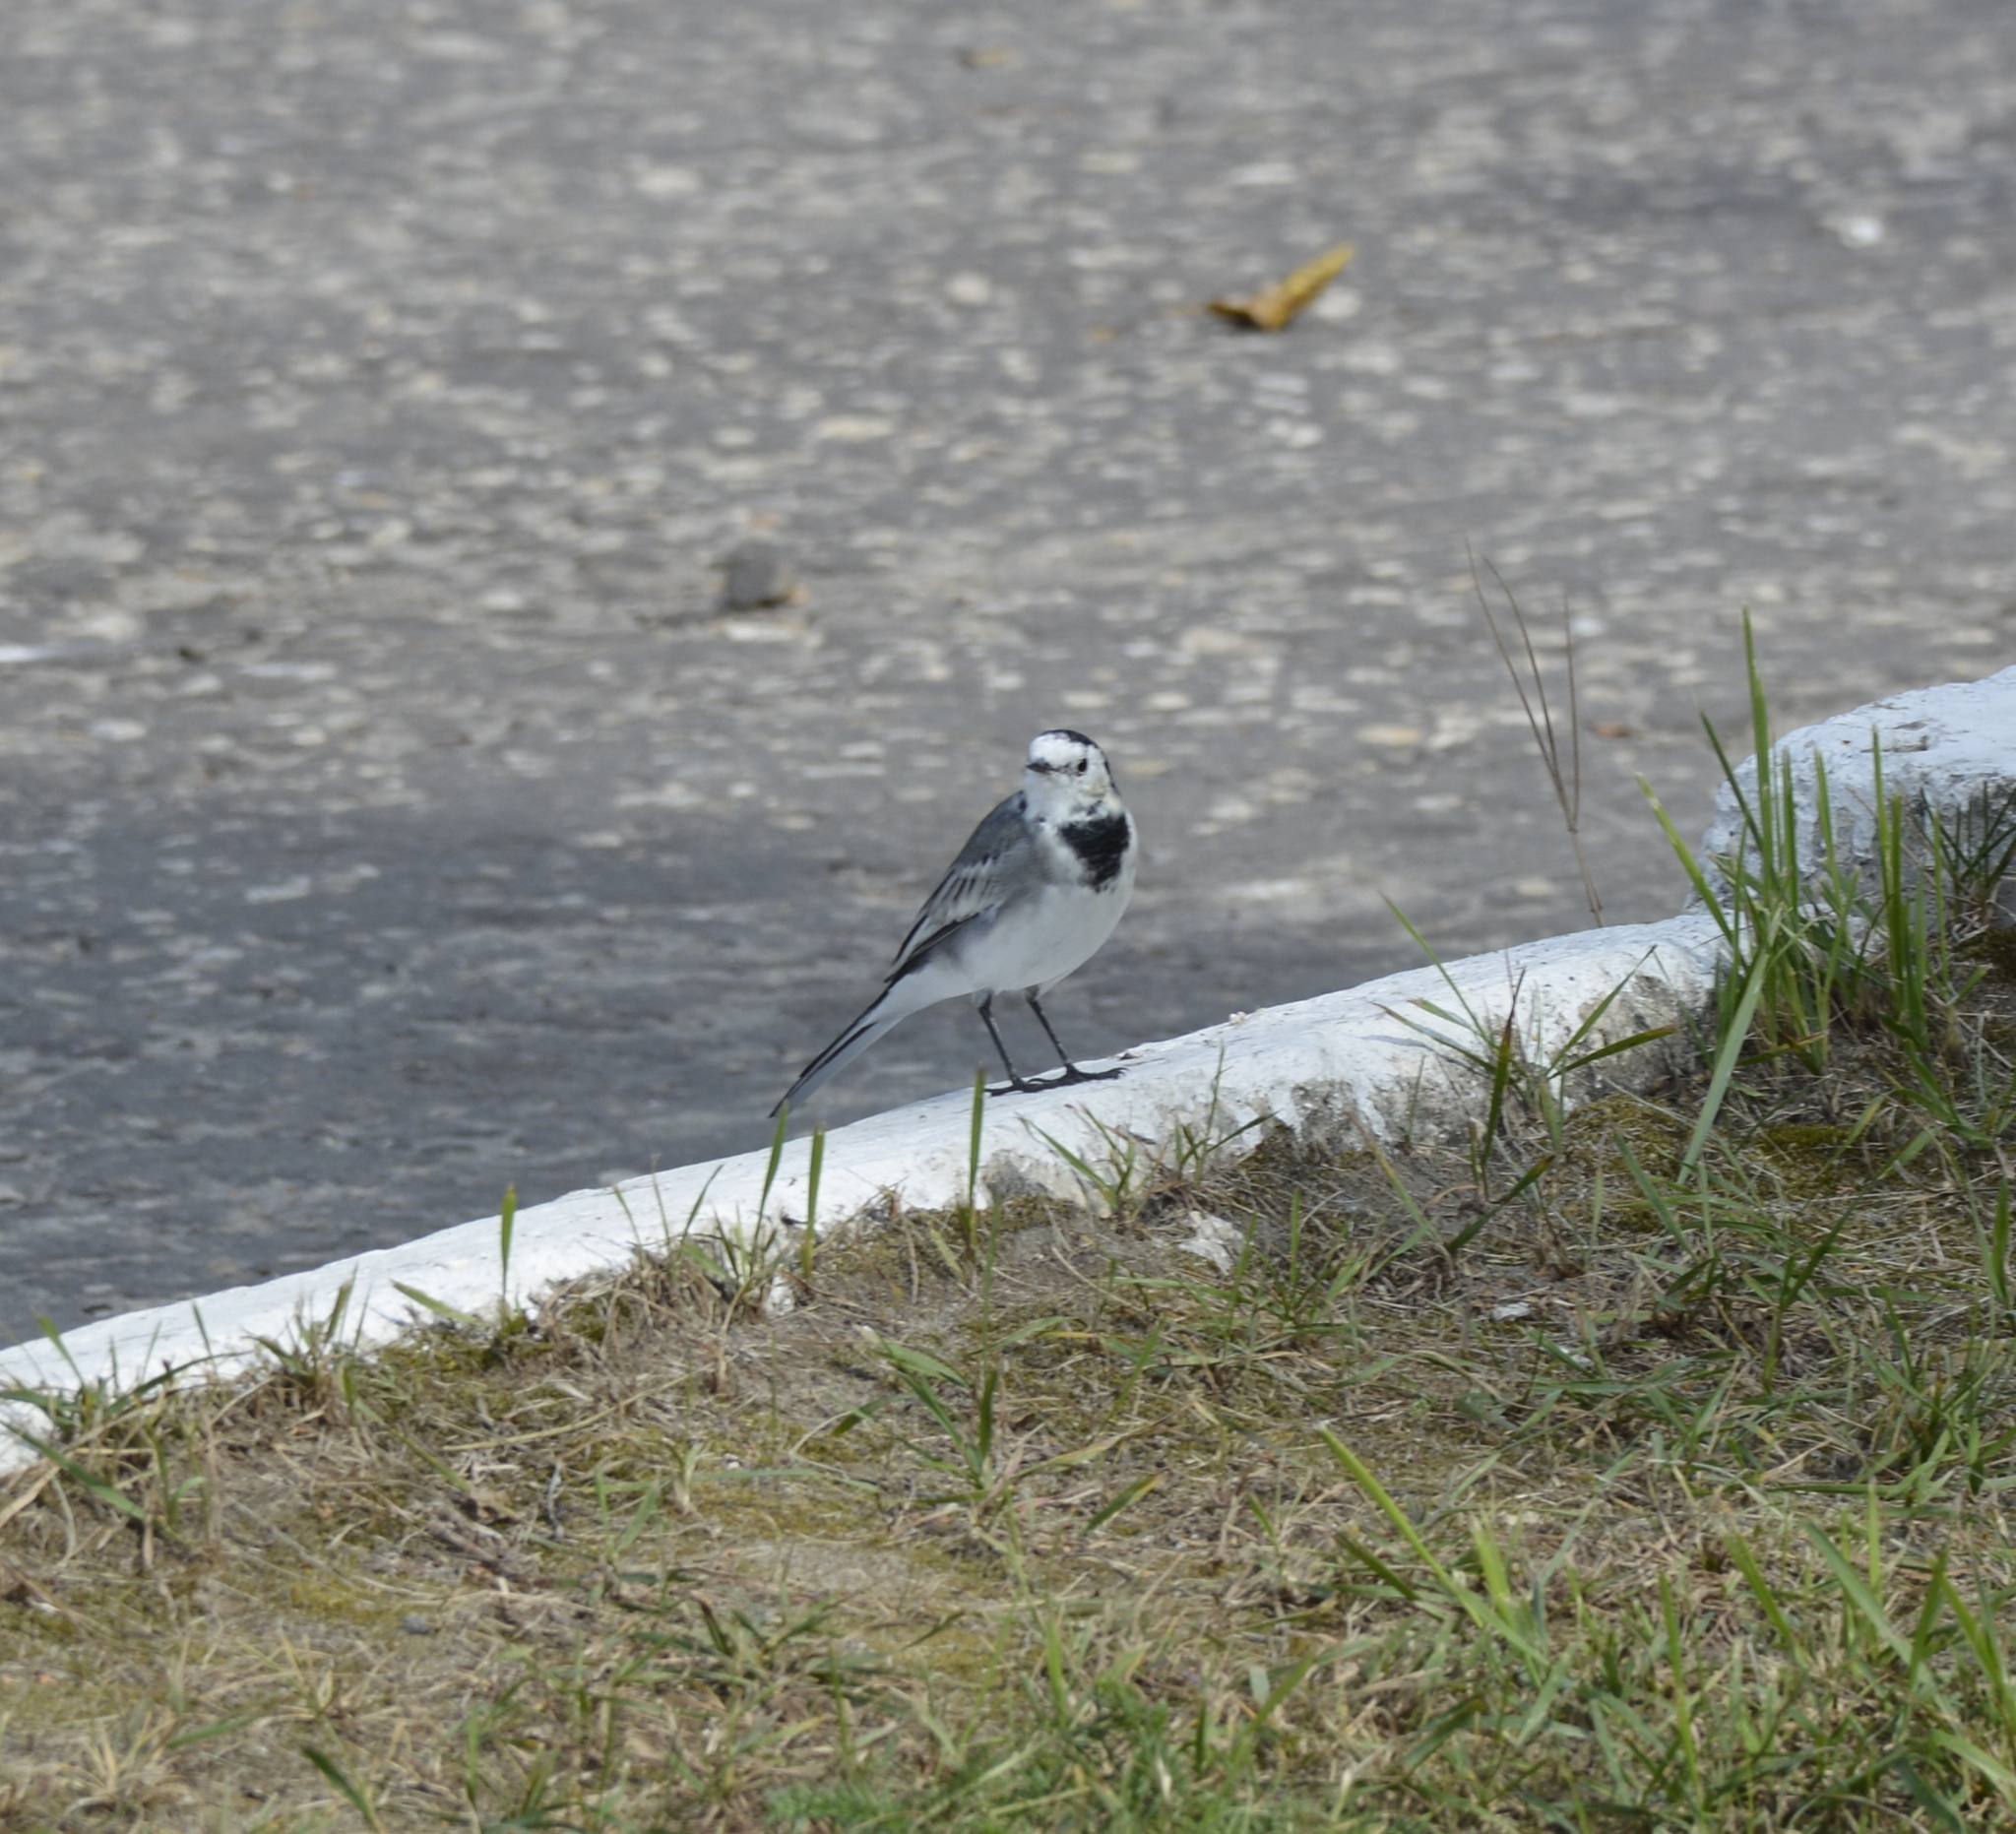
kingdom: Animalia
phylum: Chordata
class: Aves
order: Passeriformes
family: Motacillidae
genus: Motacilla
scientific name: Motacilla alba
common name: White wagtail
